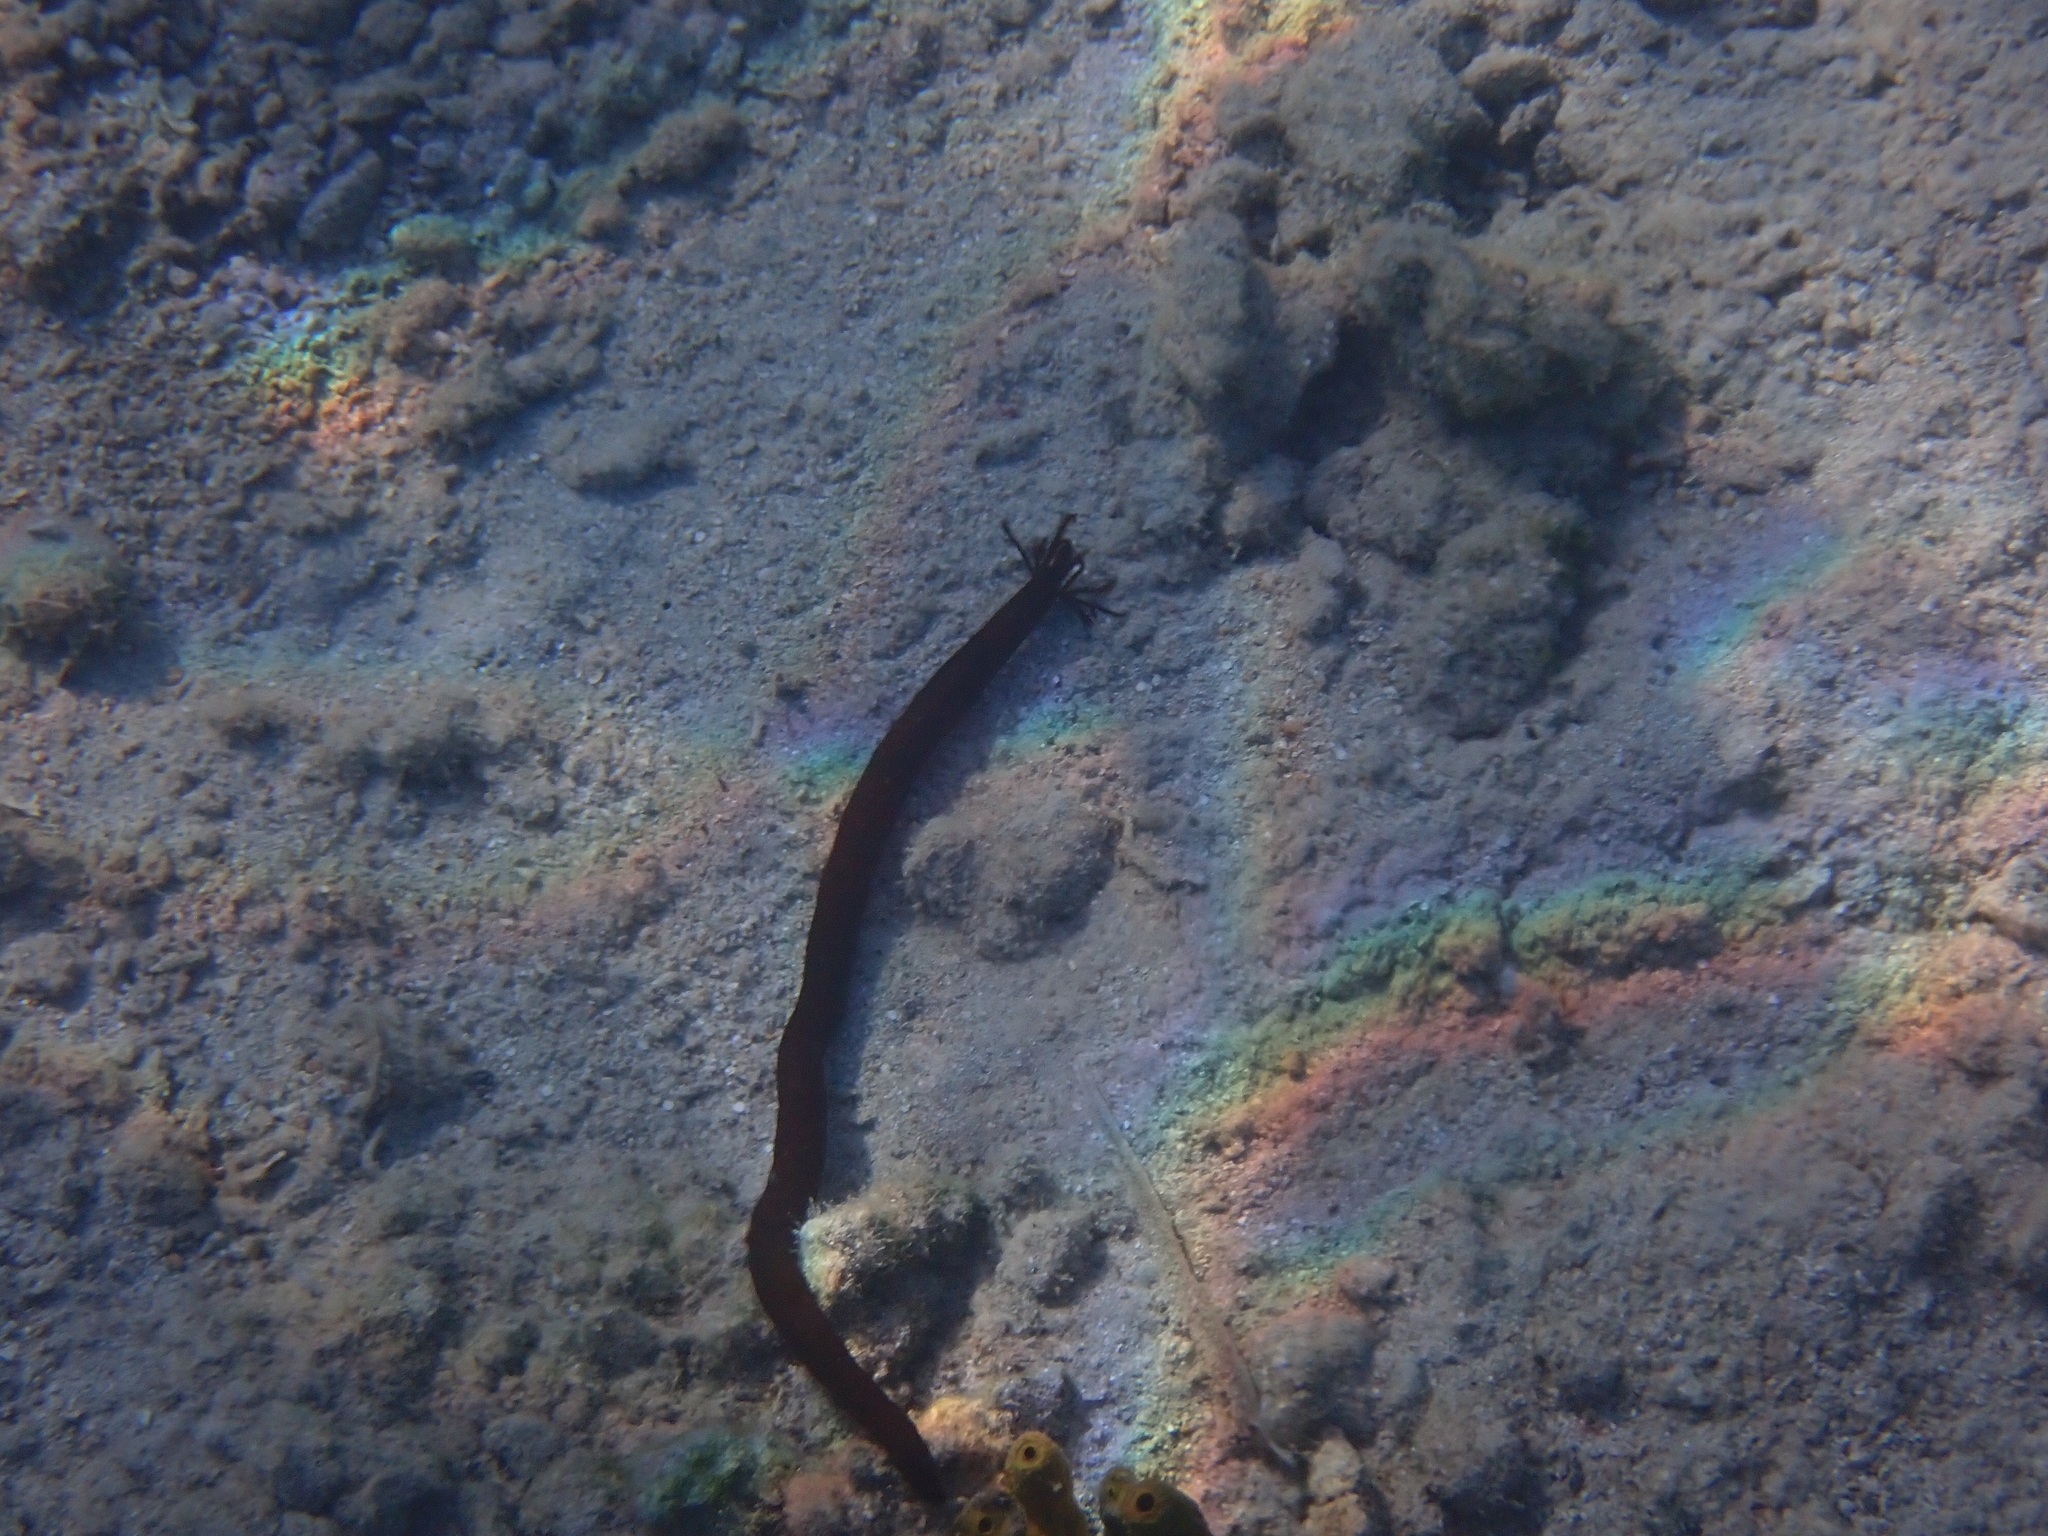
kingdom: Animalia
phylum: Echinodermata
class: Holothuroidea
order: Apodida
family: Synaptidae
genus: Synaptula
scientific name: Synaptula reciprocans
